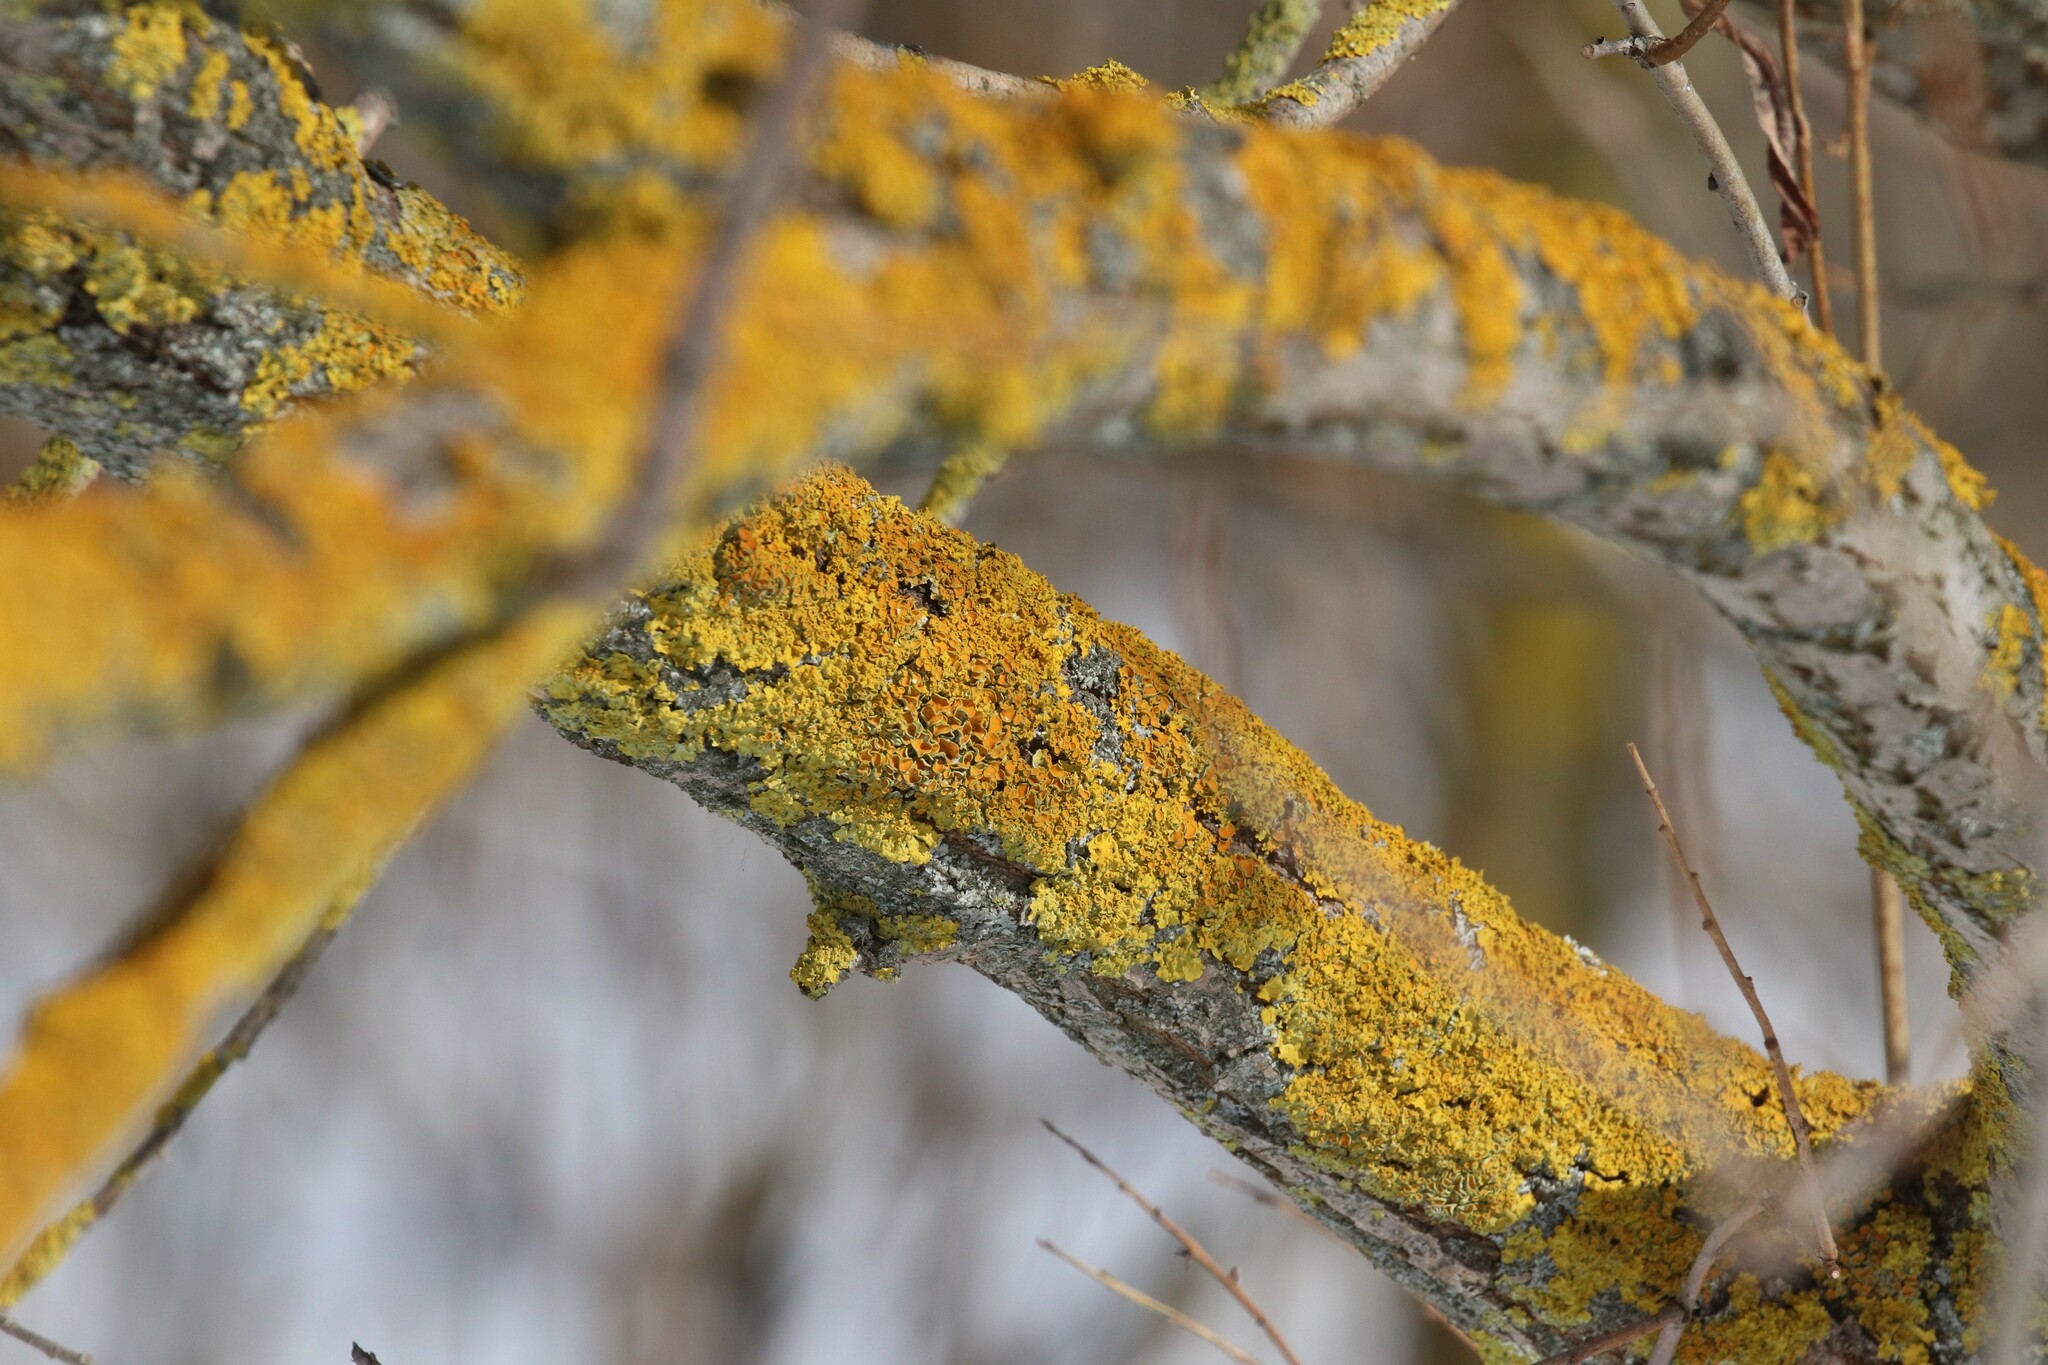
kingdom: Fungi
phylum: Ascomycota
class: Lecanoromycetes
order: Teloschistales
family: Teloschistaceae
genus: Xanthoria
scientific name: Xanthoria parietina
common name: Common orange lichen
